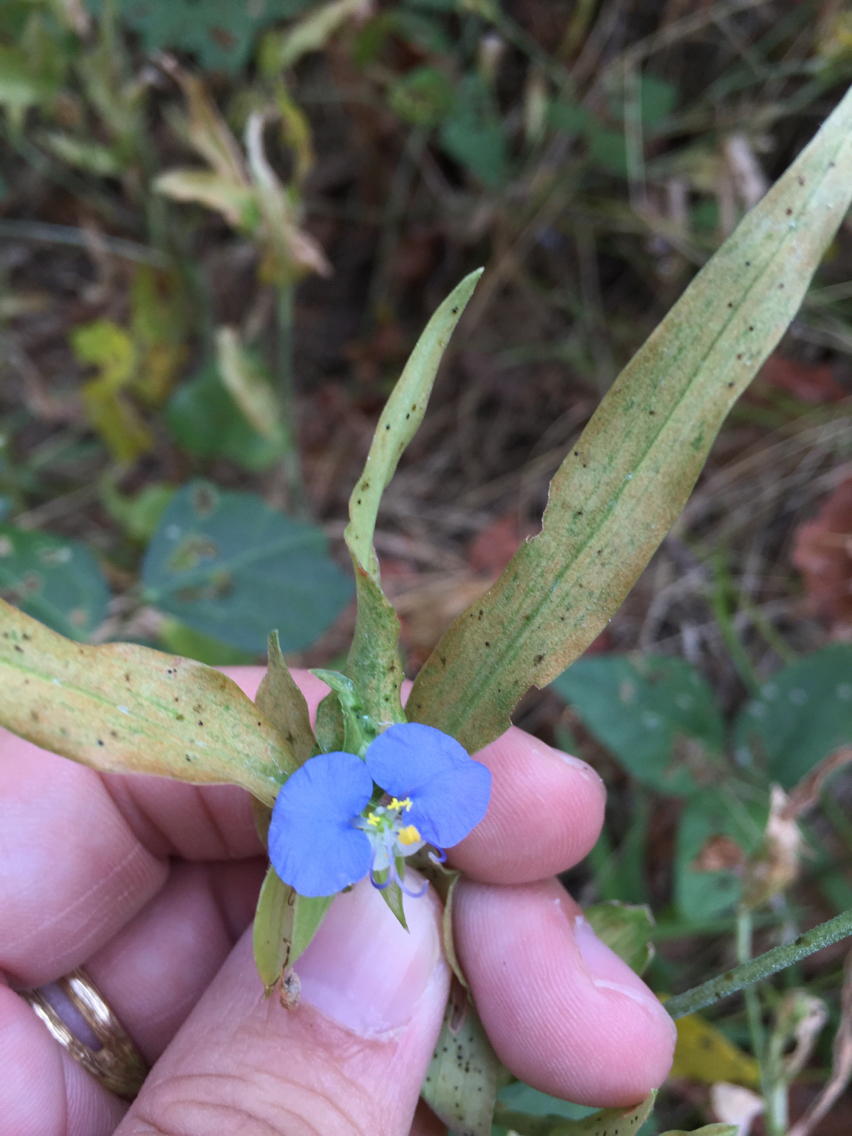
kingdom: Plantae
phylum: Tracheophyta
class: Liliopsida
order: Commelinales
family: Commelinaceae
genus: Commelina
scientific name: Commelina erecta
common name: Blousel blommetjie
